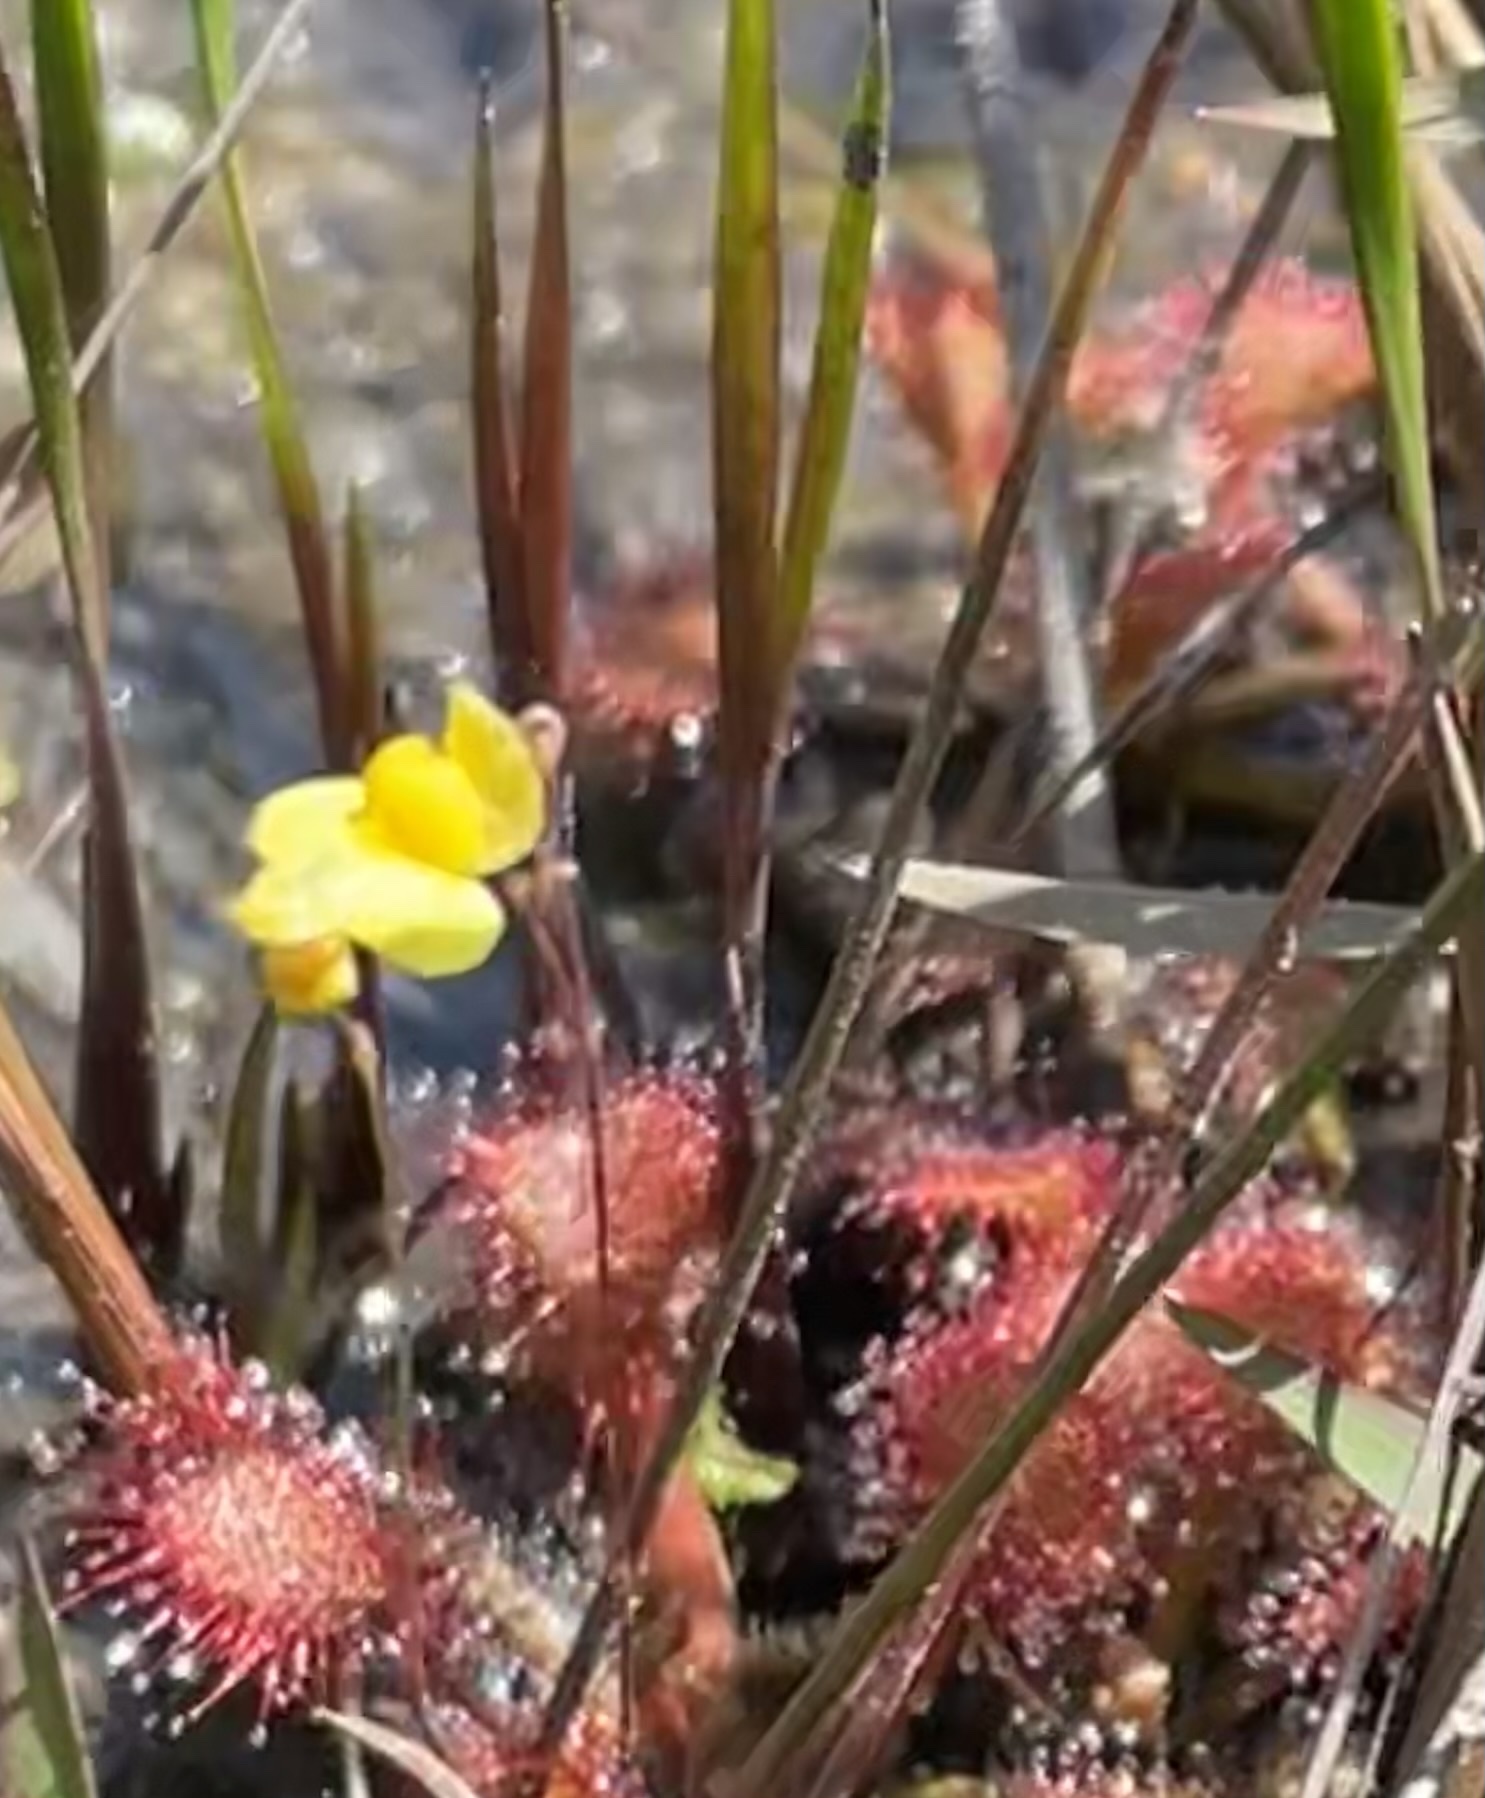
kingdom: Plantae
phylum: Tracheophyta
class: Magnoliopsida
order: Lamiales
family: Lentibulariaceae
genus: Utricularia
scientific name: Utricularia subulata
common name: Tiny bladderwort
